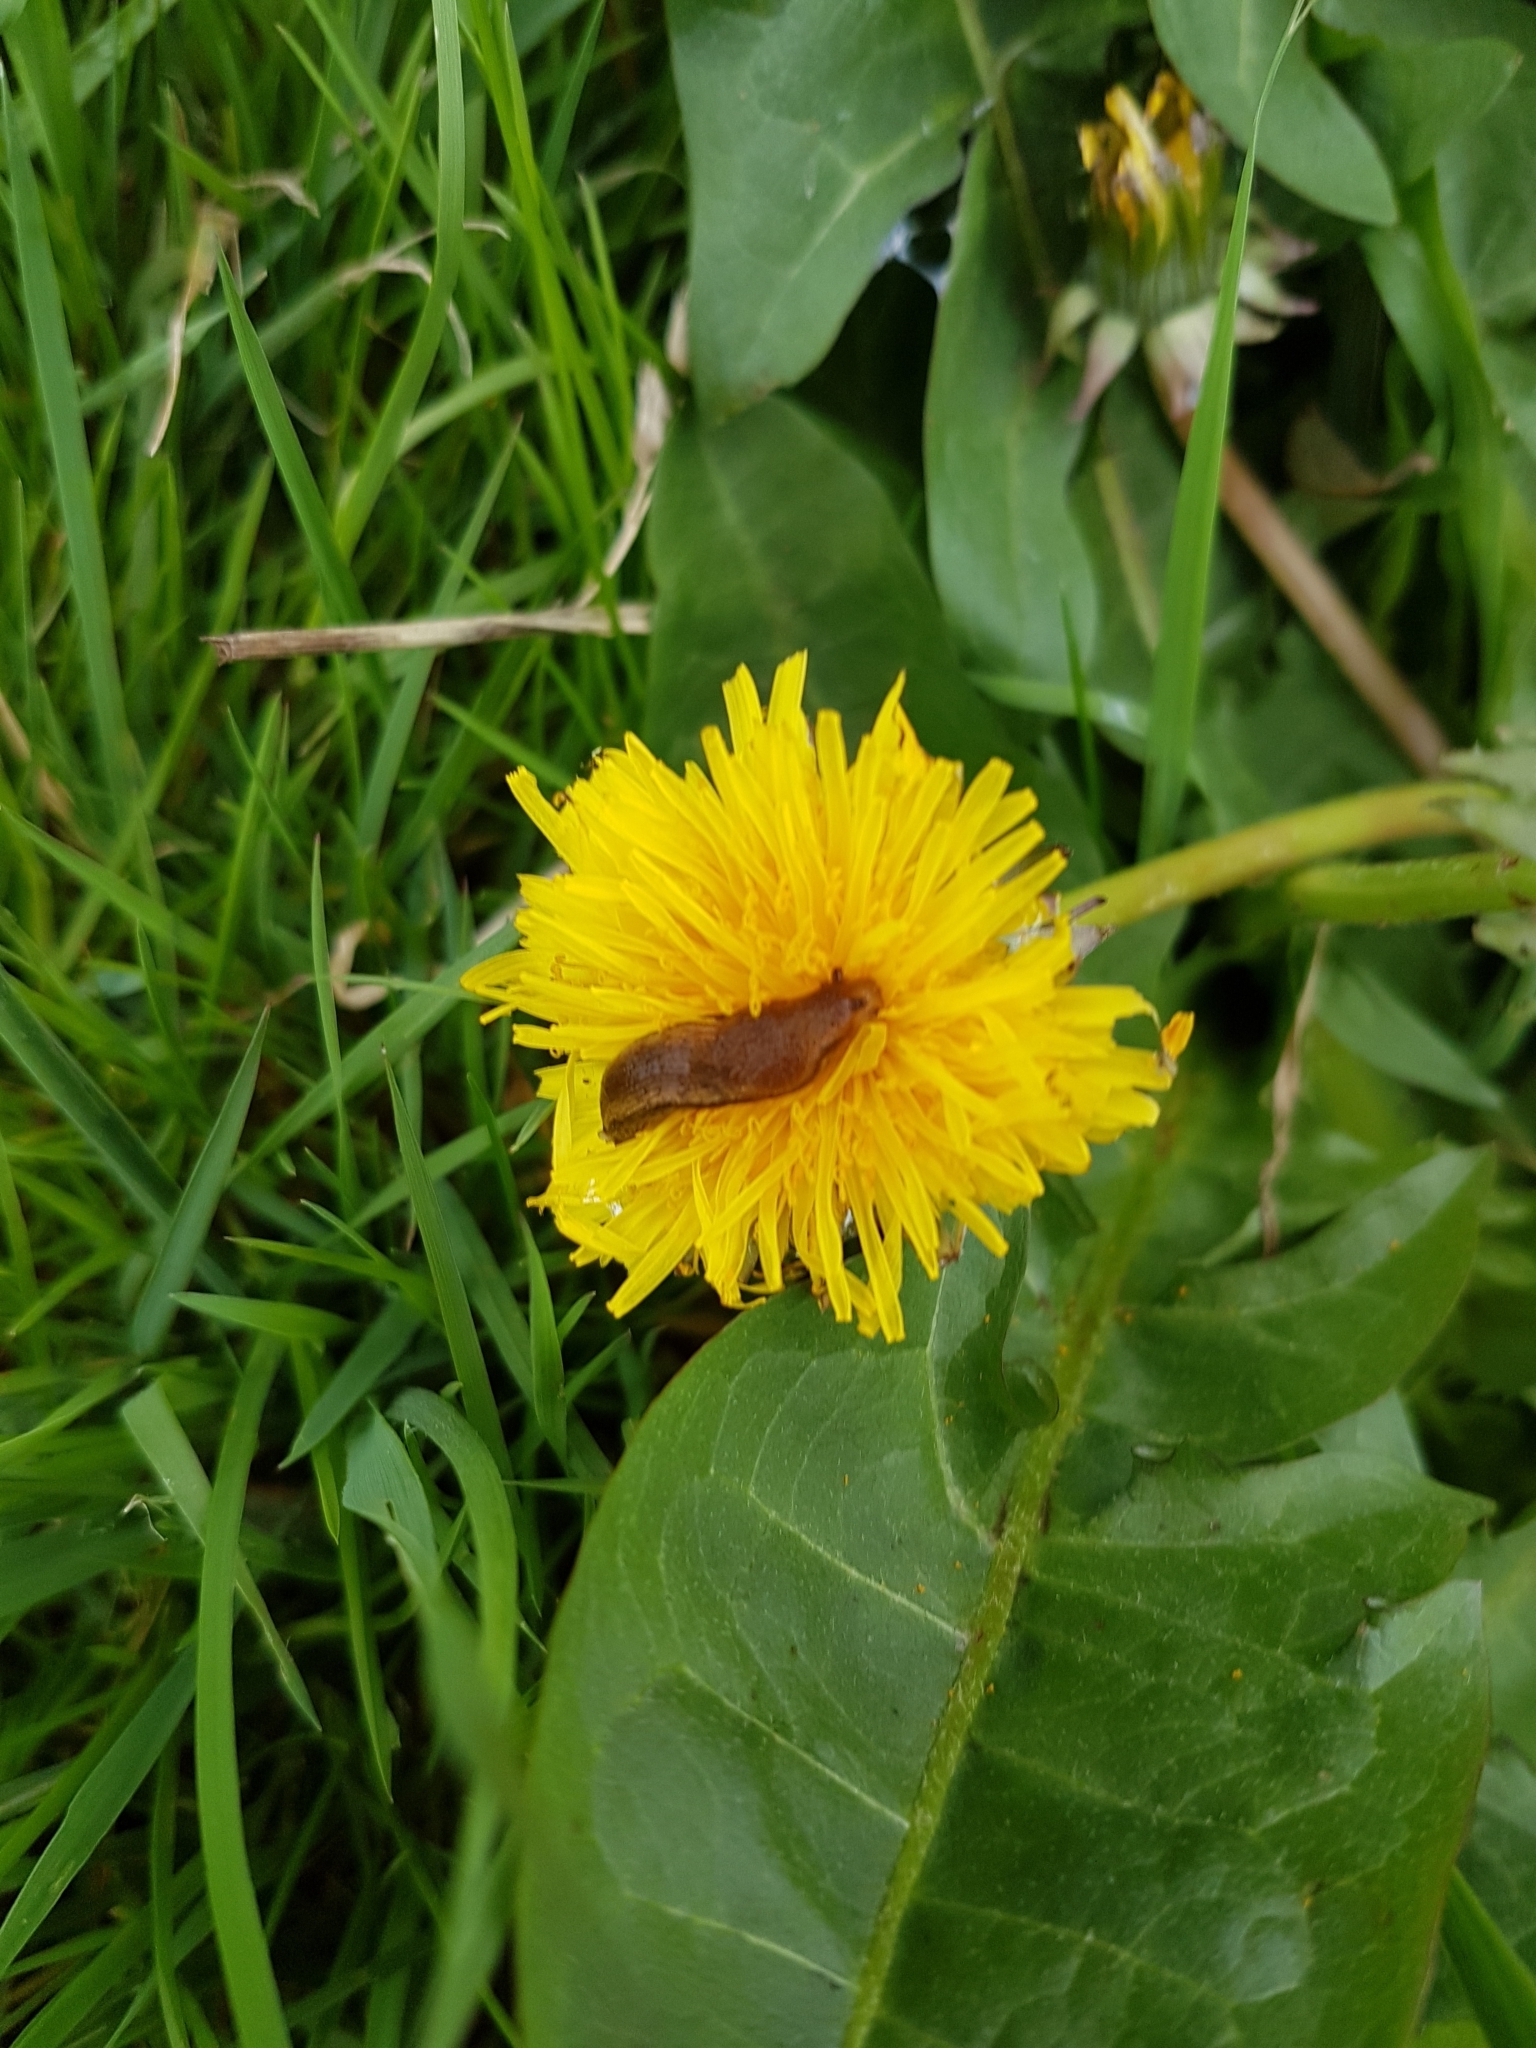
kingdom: Animalia
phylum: Mollusca
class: Gastropoda
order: Stylommatophora
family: Arionidae
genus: Arion
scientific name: Arion subfuscus
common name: Dusky arion
